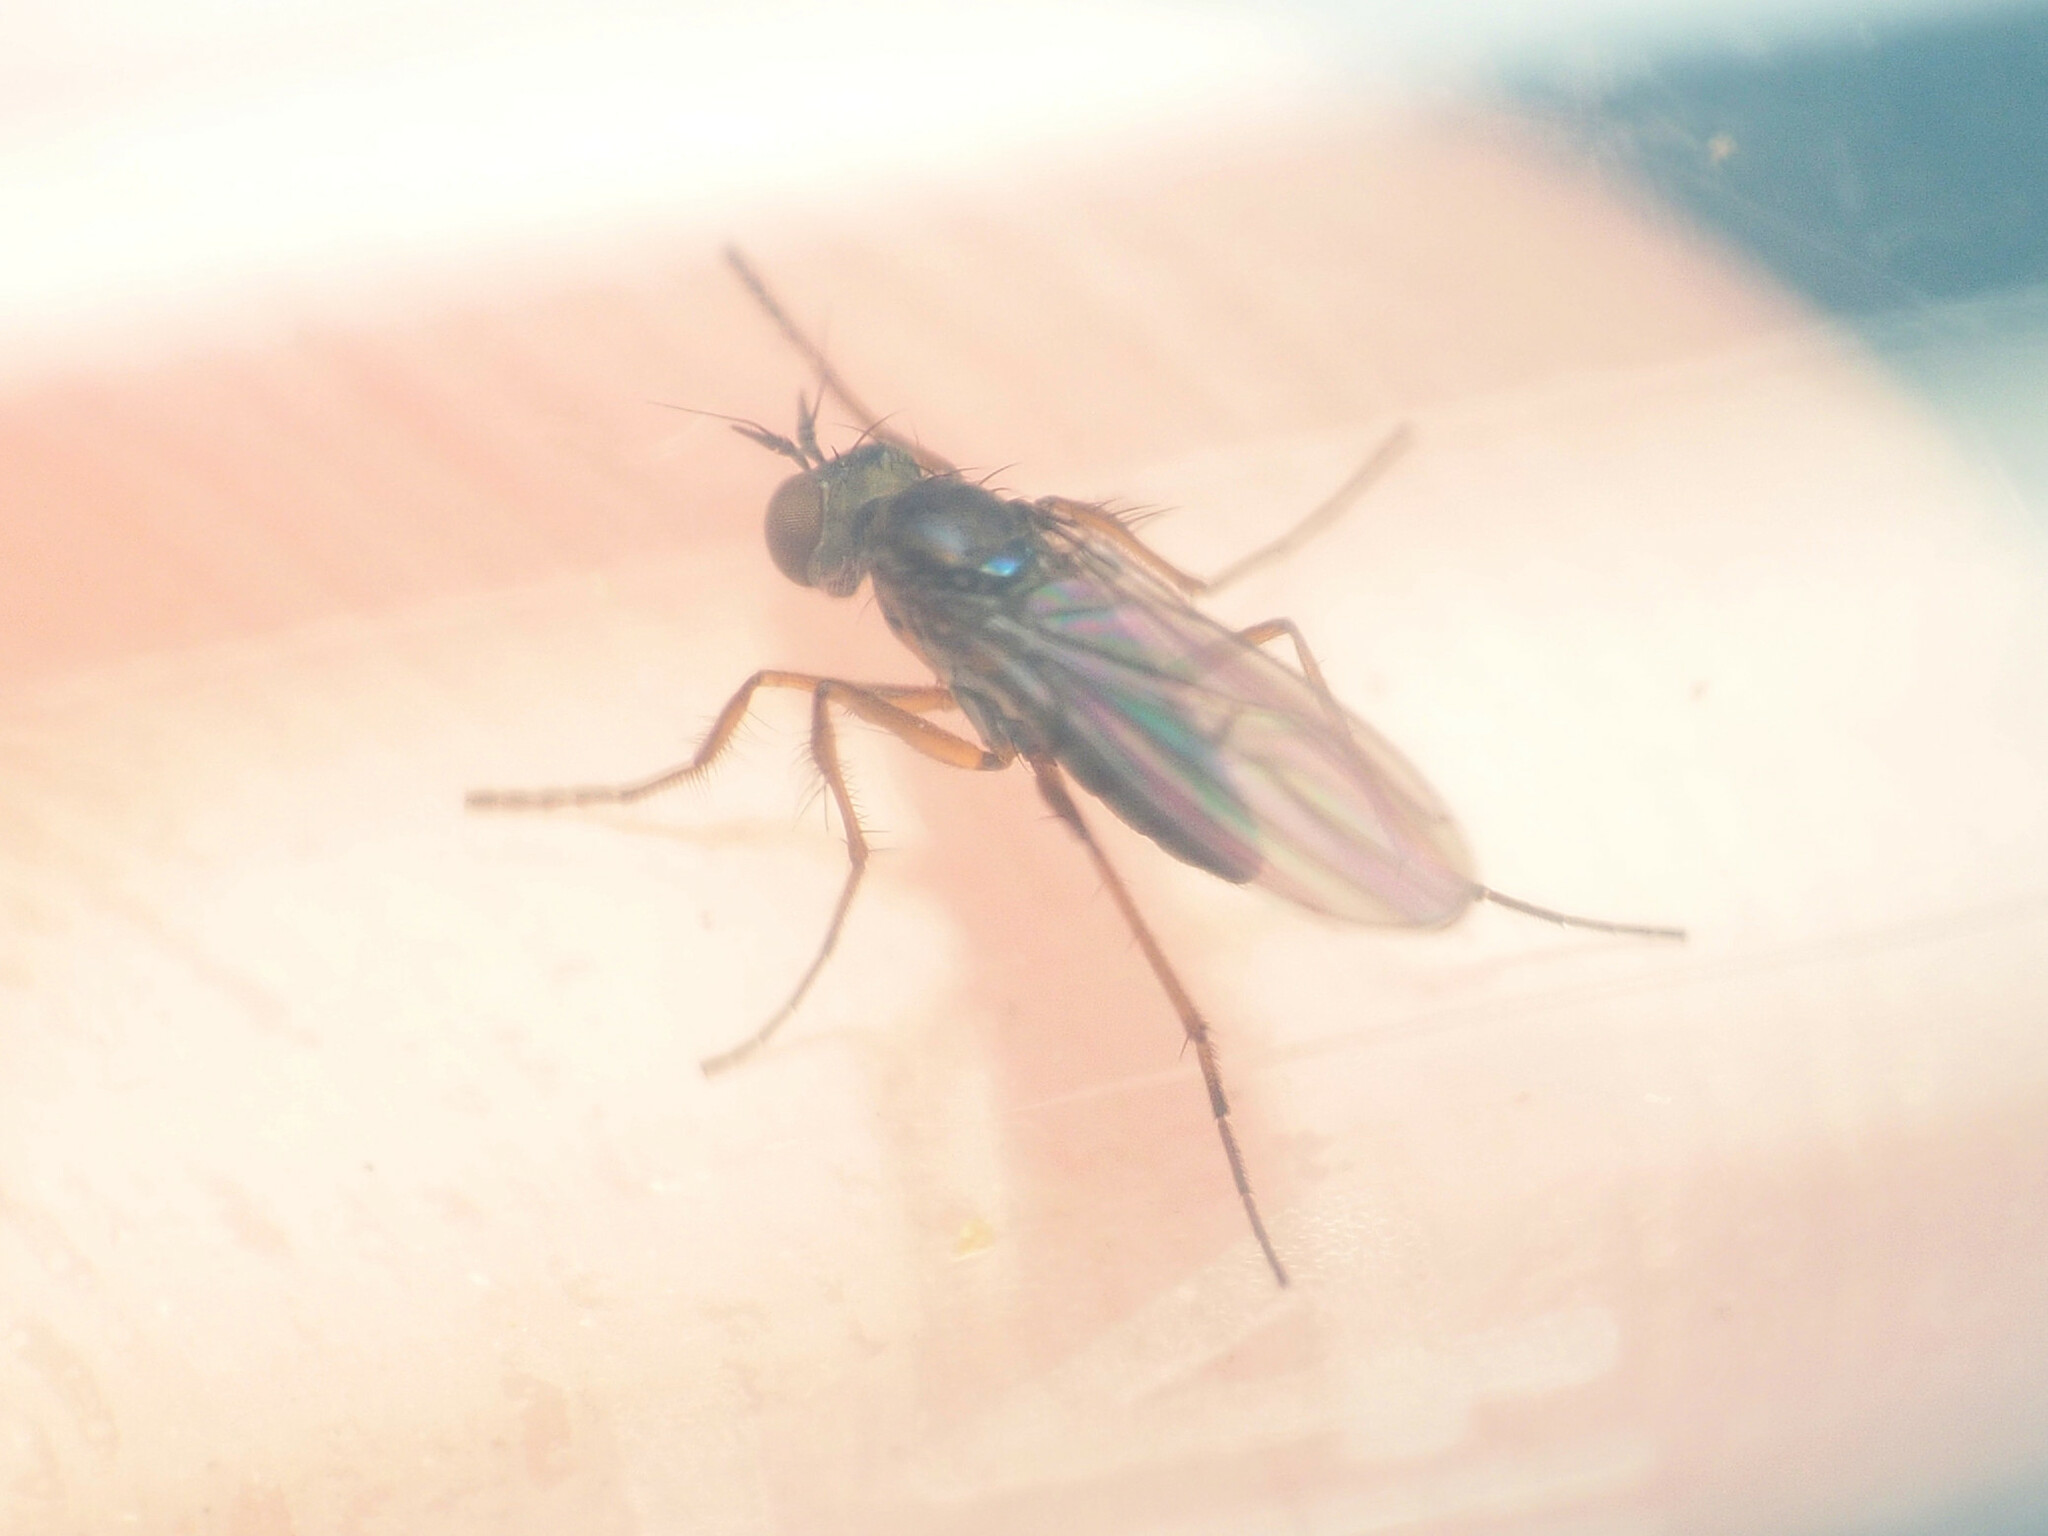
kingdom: Animalia
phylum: Arthropoda
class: Insecta
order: Diptera
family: Dolichopodidae
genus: Campsicnemus
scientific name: Campsicnemus hirtipes
